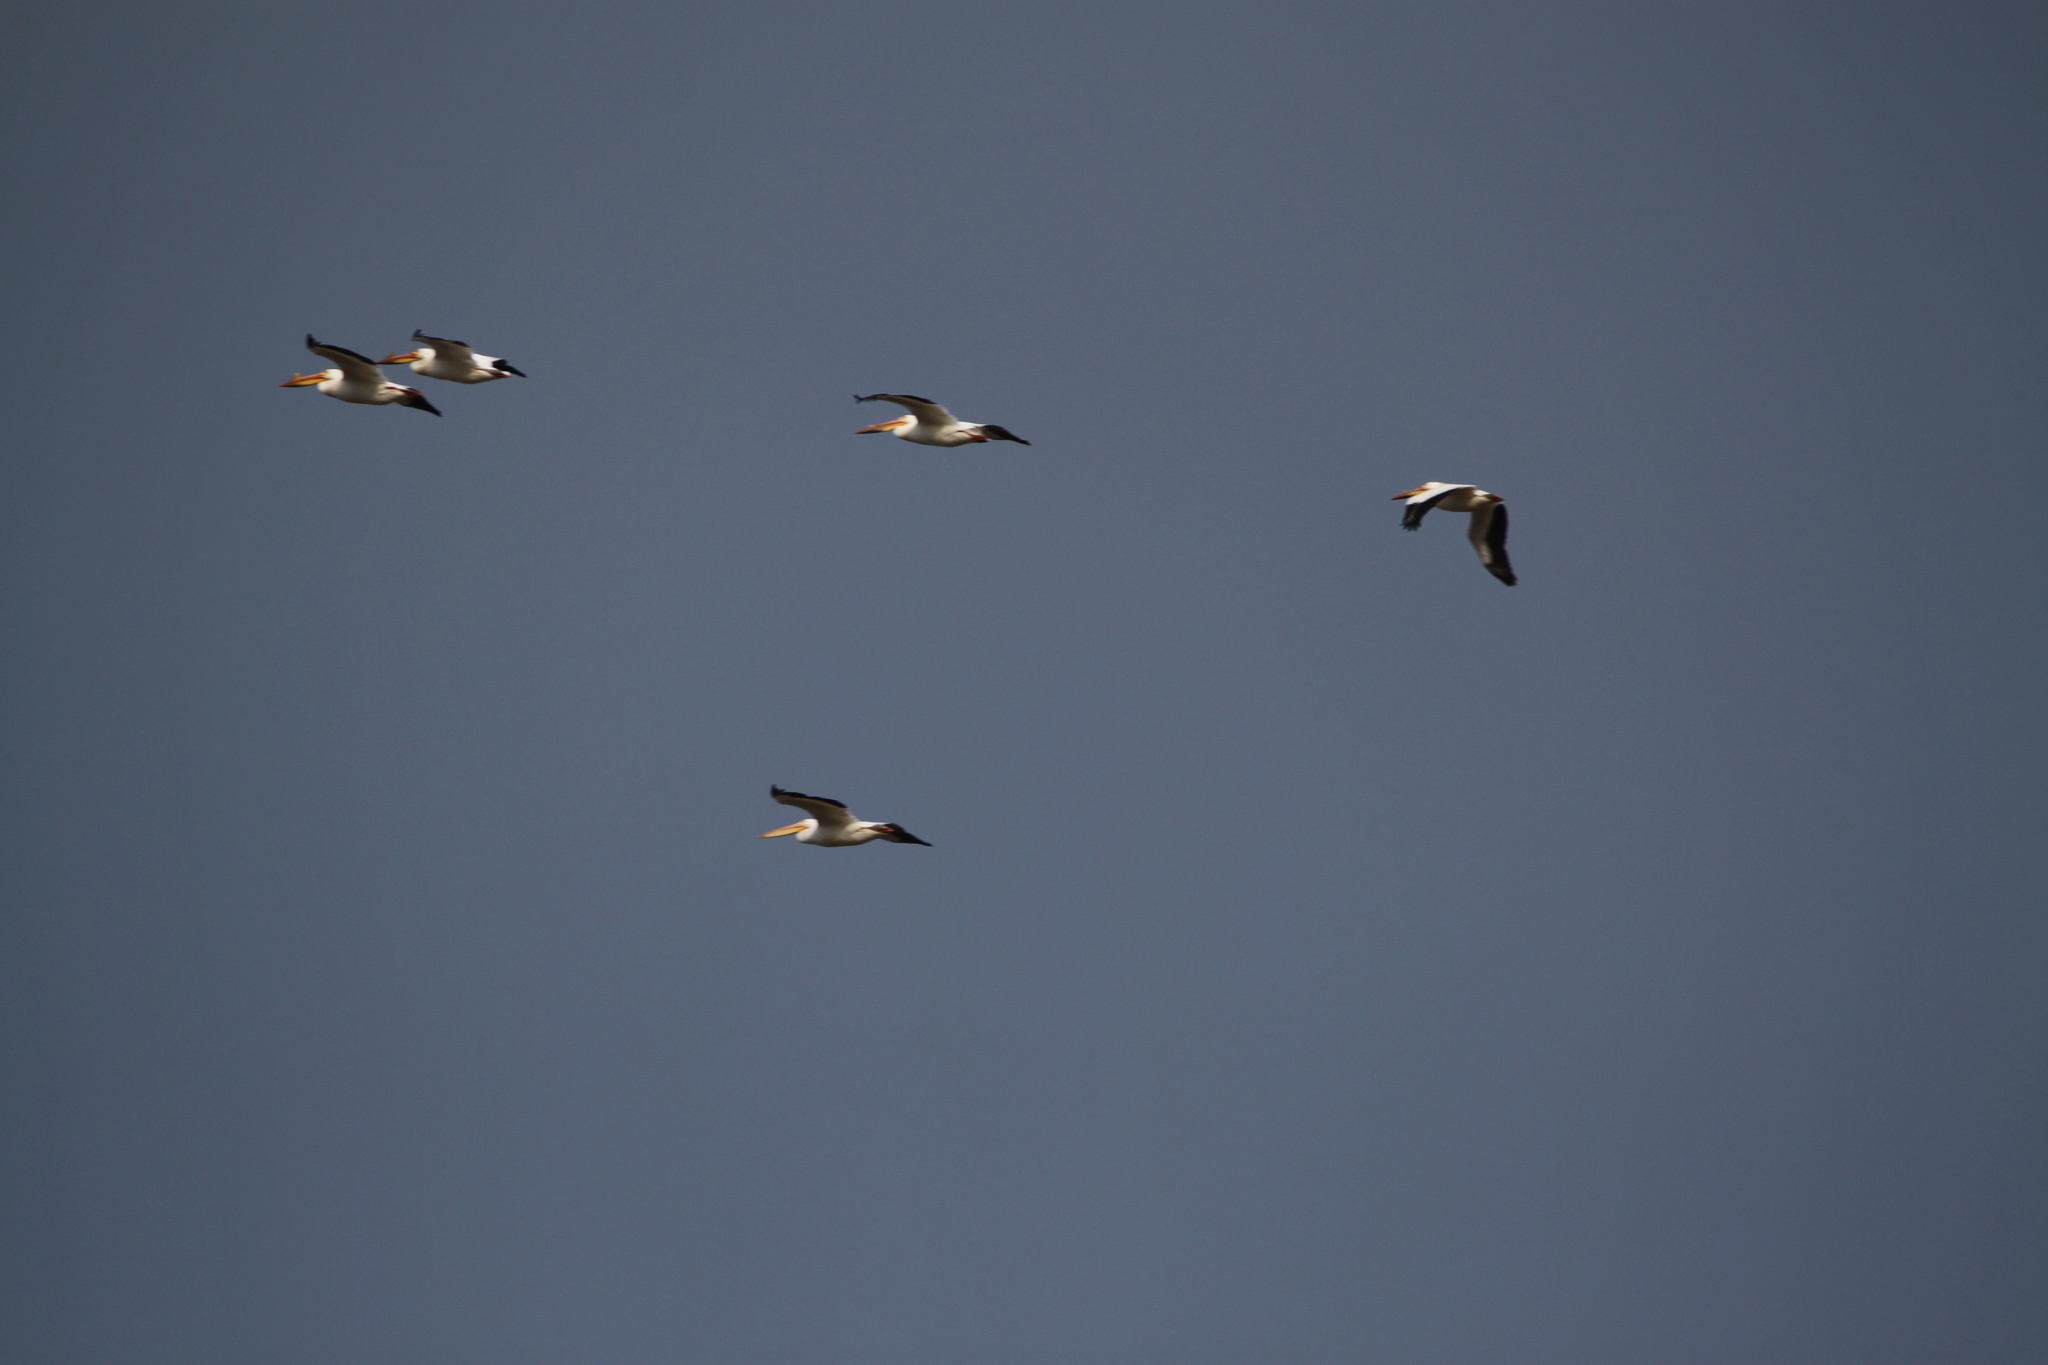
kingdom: Animalia
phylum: Chordata
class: Aves
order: Pelecaniformes
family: Pelecanidae
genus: Pelecanus
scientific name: Pelecanus erythrorhynchos
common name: American white pelican
